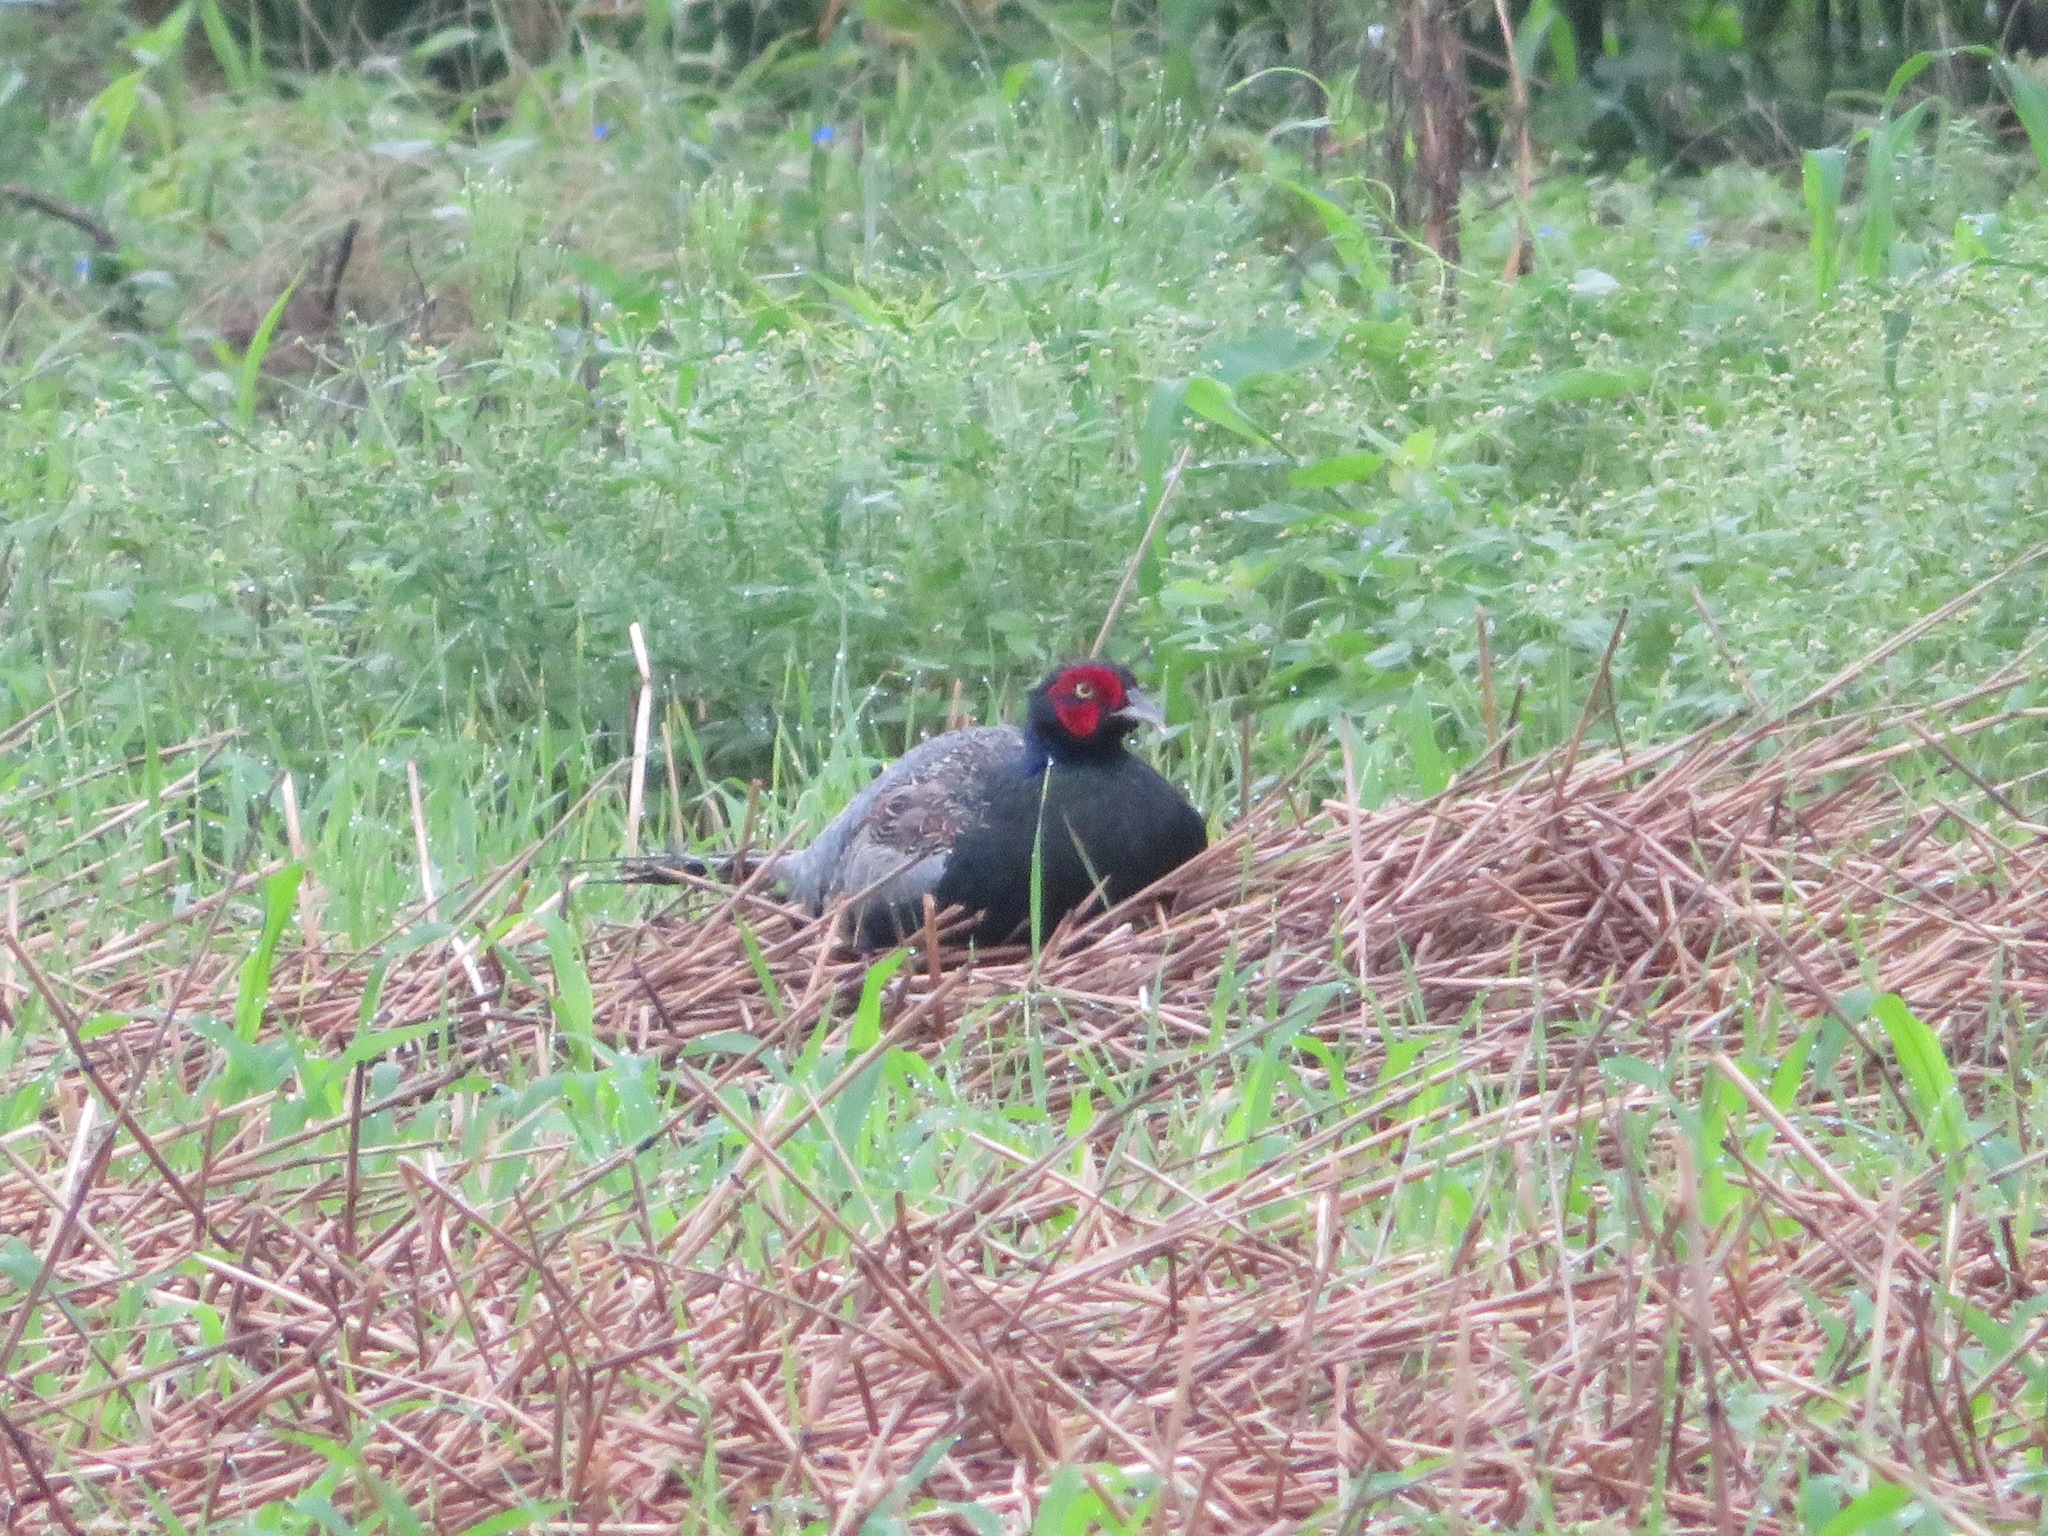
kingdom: Animalia
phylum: Chordata
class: Aves
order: Galliformes
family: Phasianidae
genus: Phasianus
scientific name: Phasianus versicolor
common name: Green pheasant
